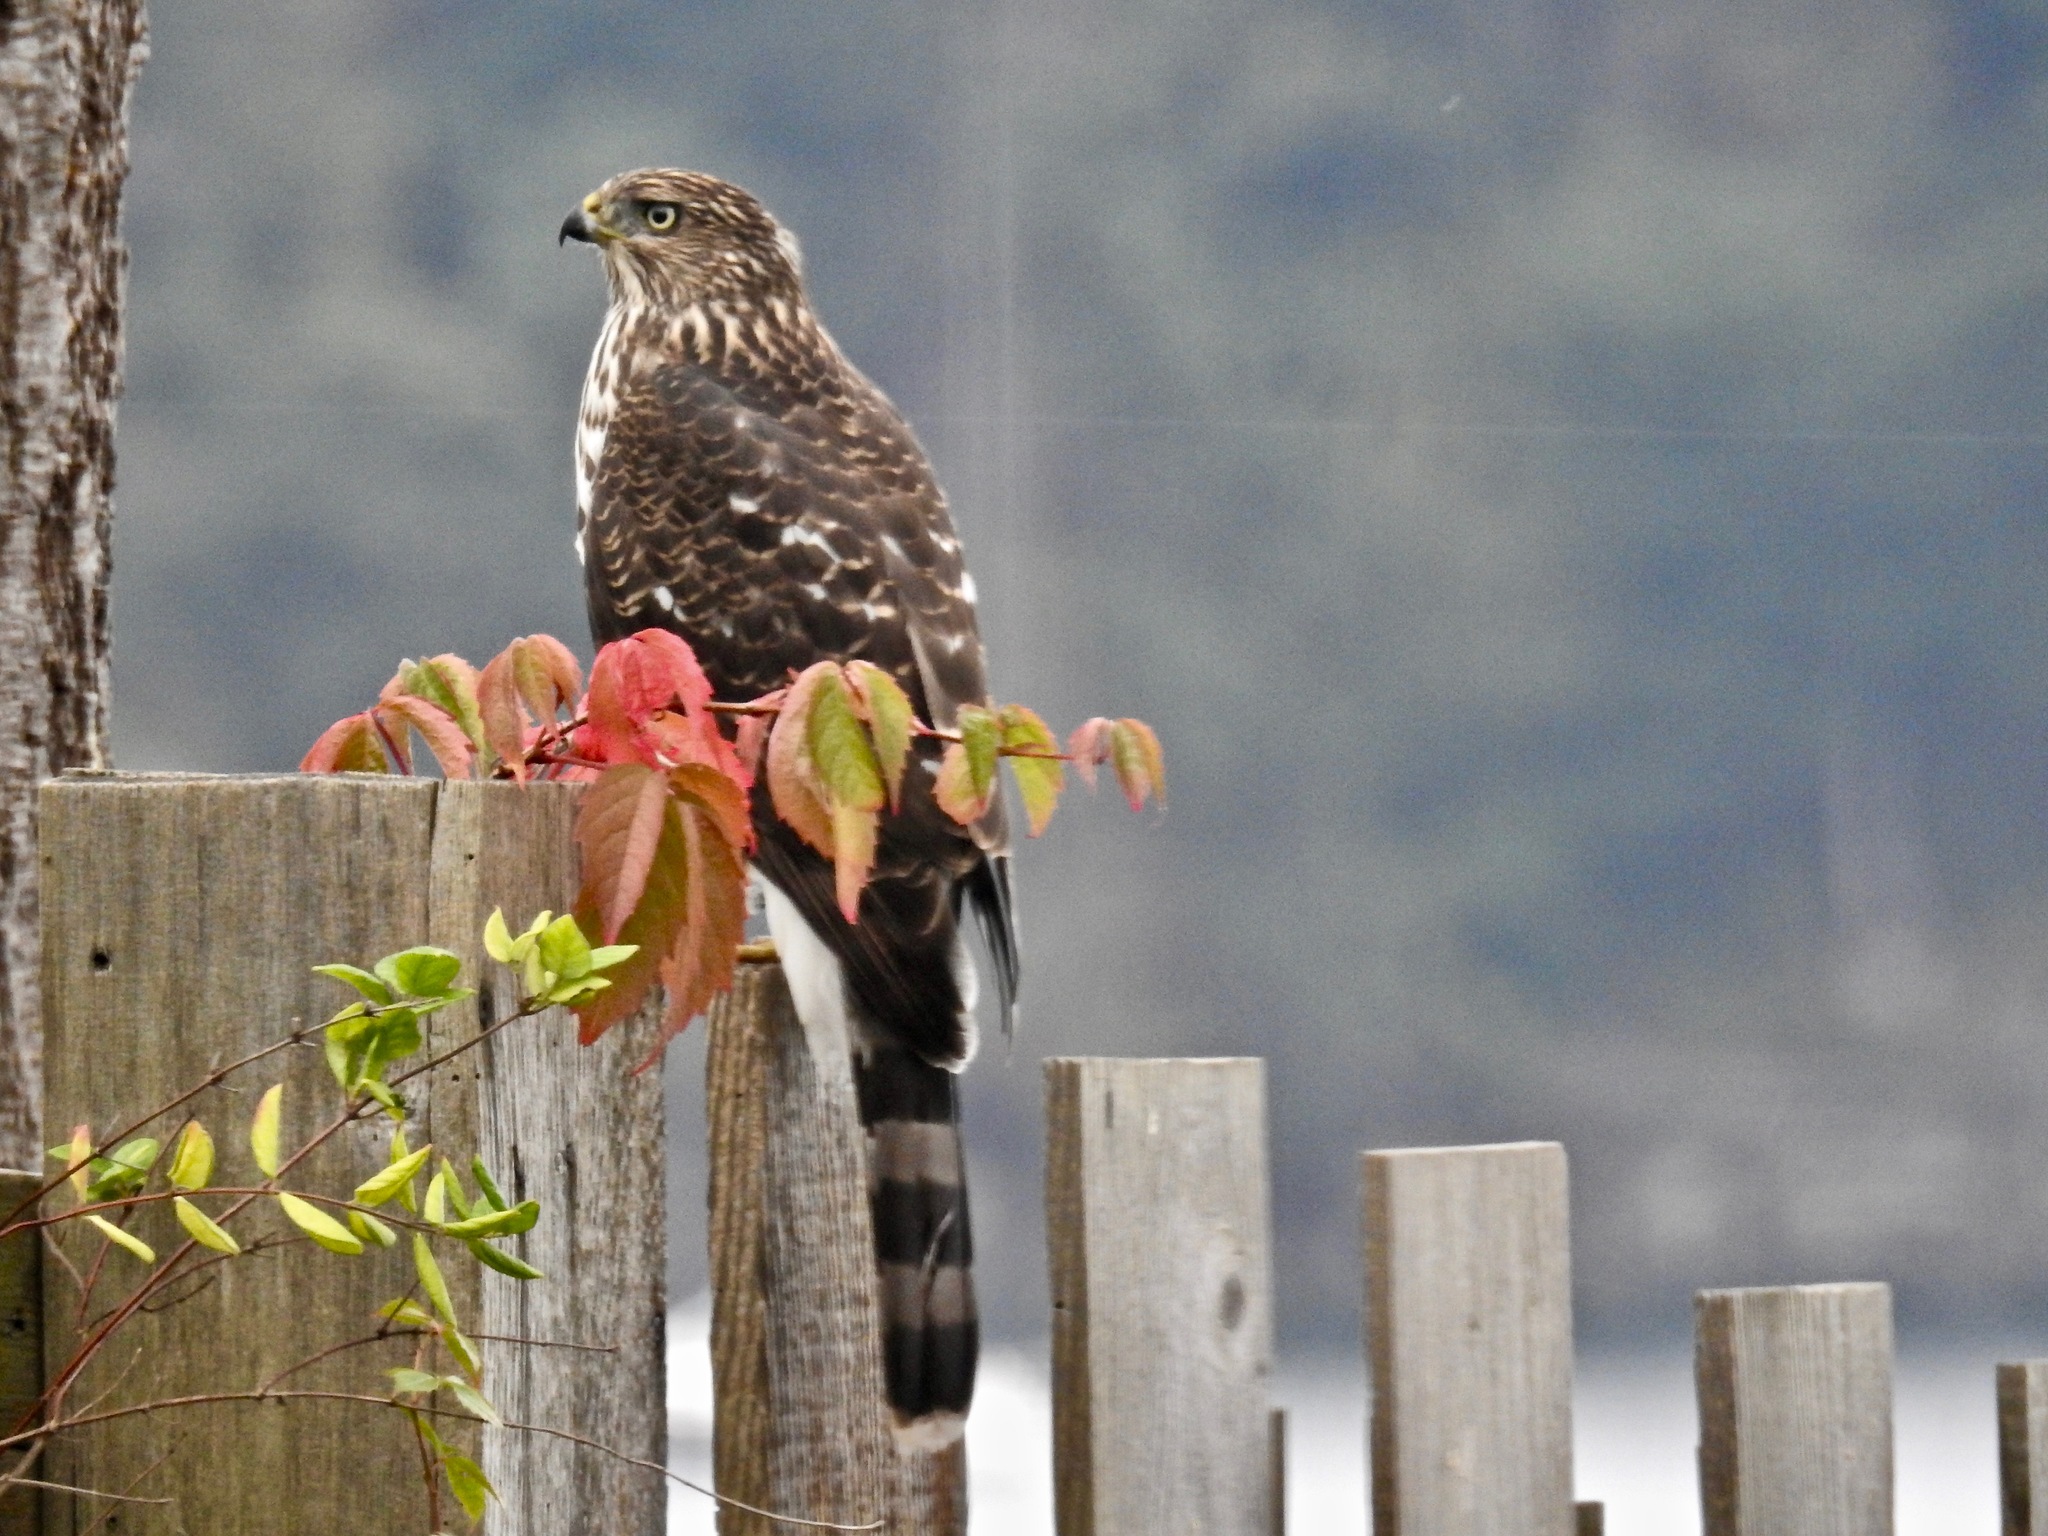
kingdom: Animalia
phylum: Chordata
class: Aves
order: Accipitriformes
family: Accipitridae
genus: Accipiter
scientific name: Accipiter cooperii
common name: Cooper's hawk
